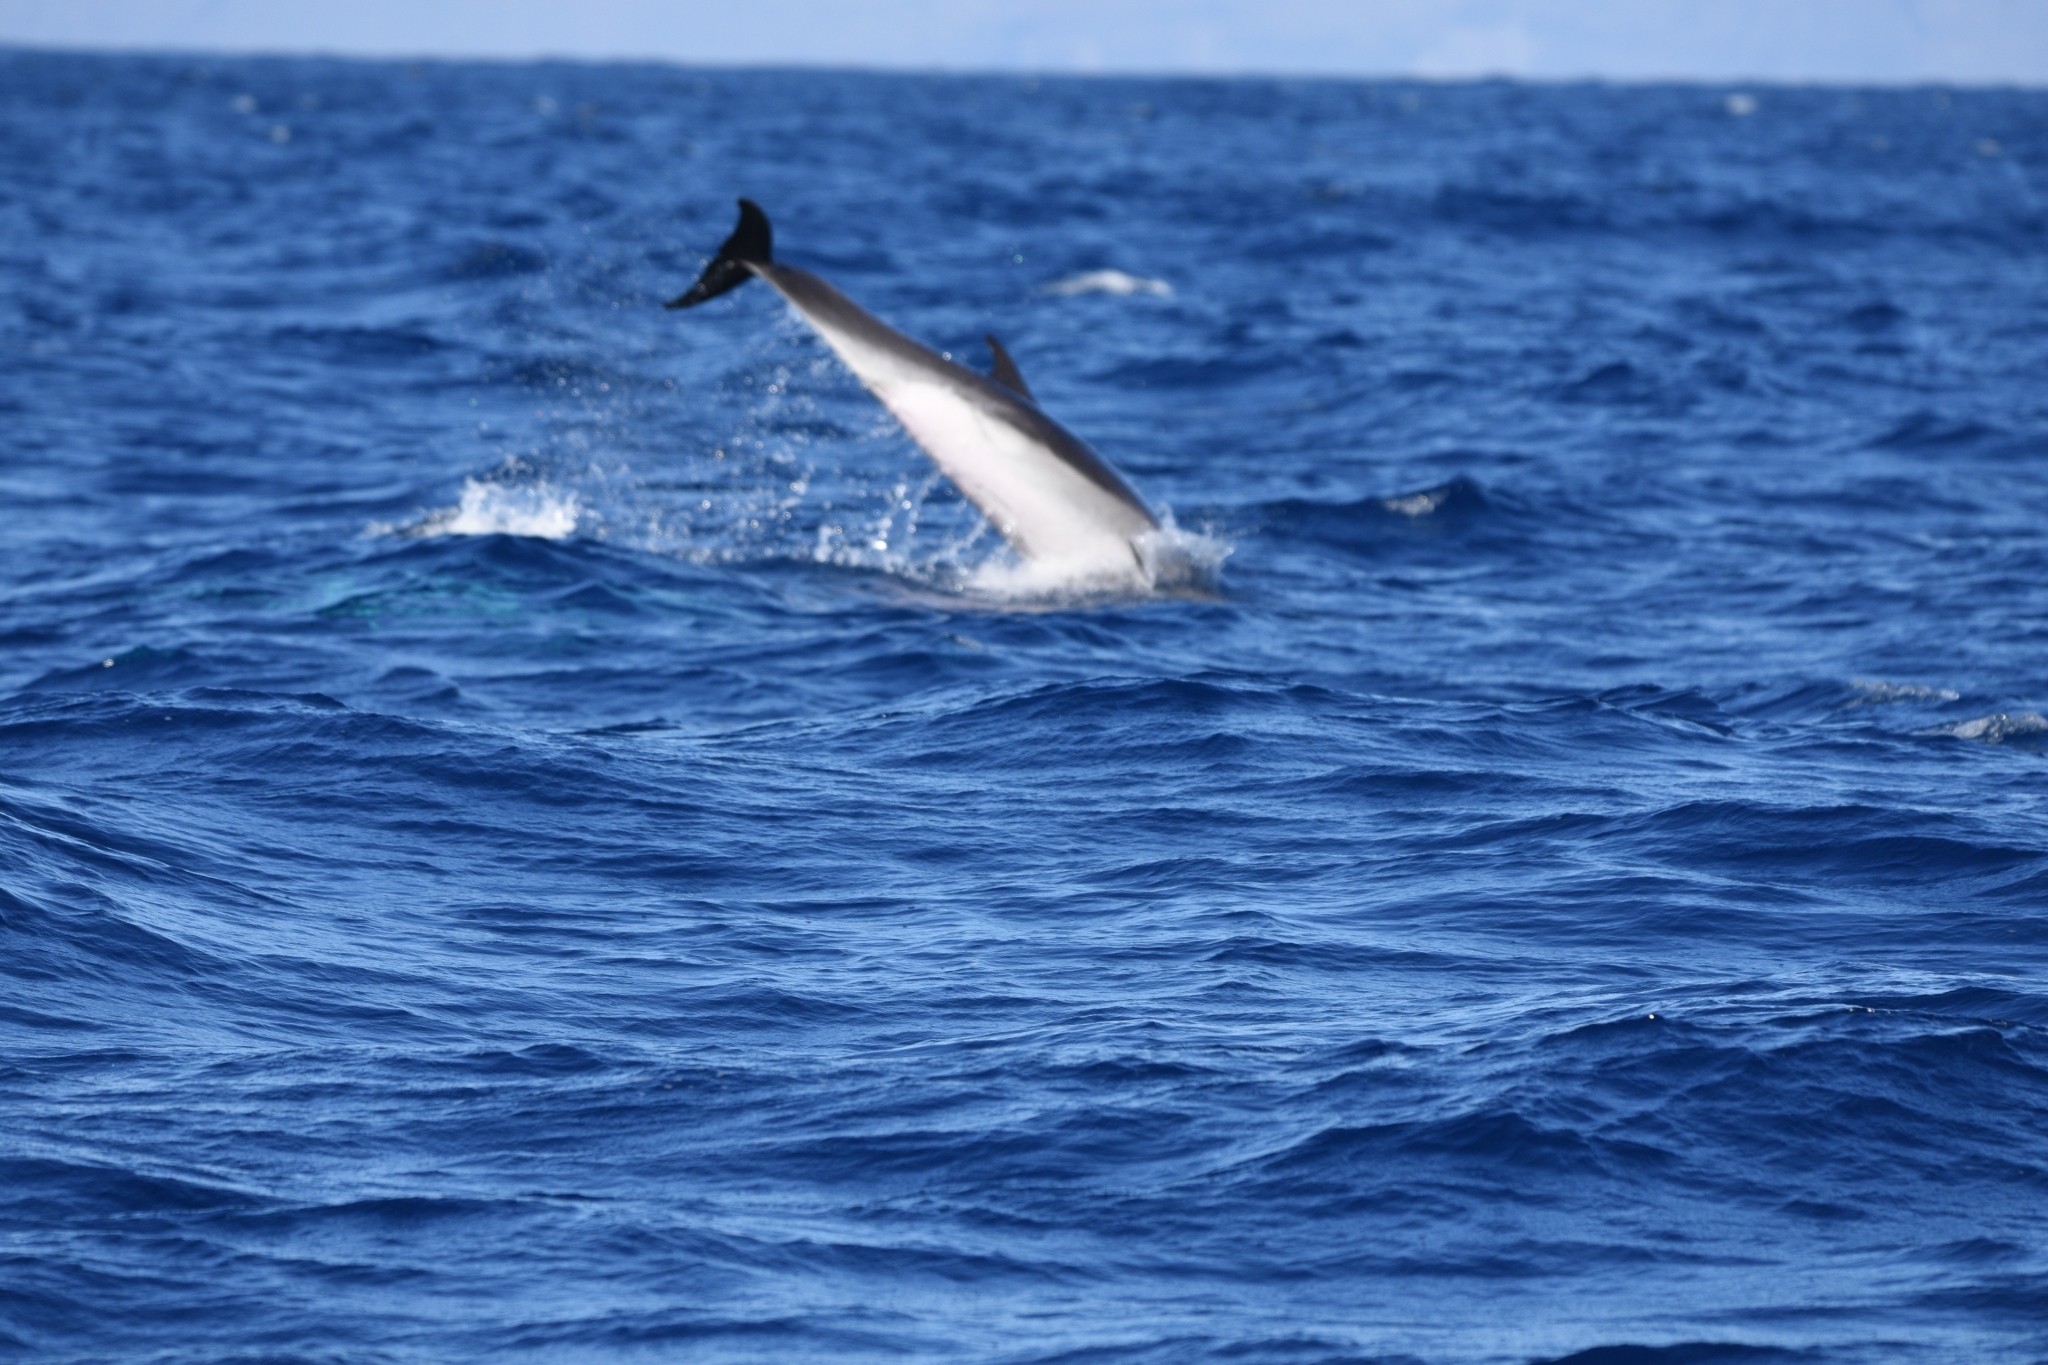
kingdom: Animalia
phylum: Chordata
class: Mammalia
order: Cetacea
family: Delphinidae
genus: Tursiops
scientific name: Tursiops truncatus
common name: Bottlenose dolphin
